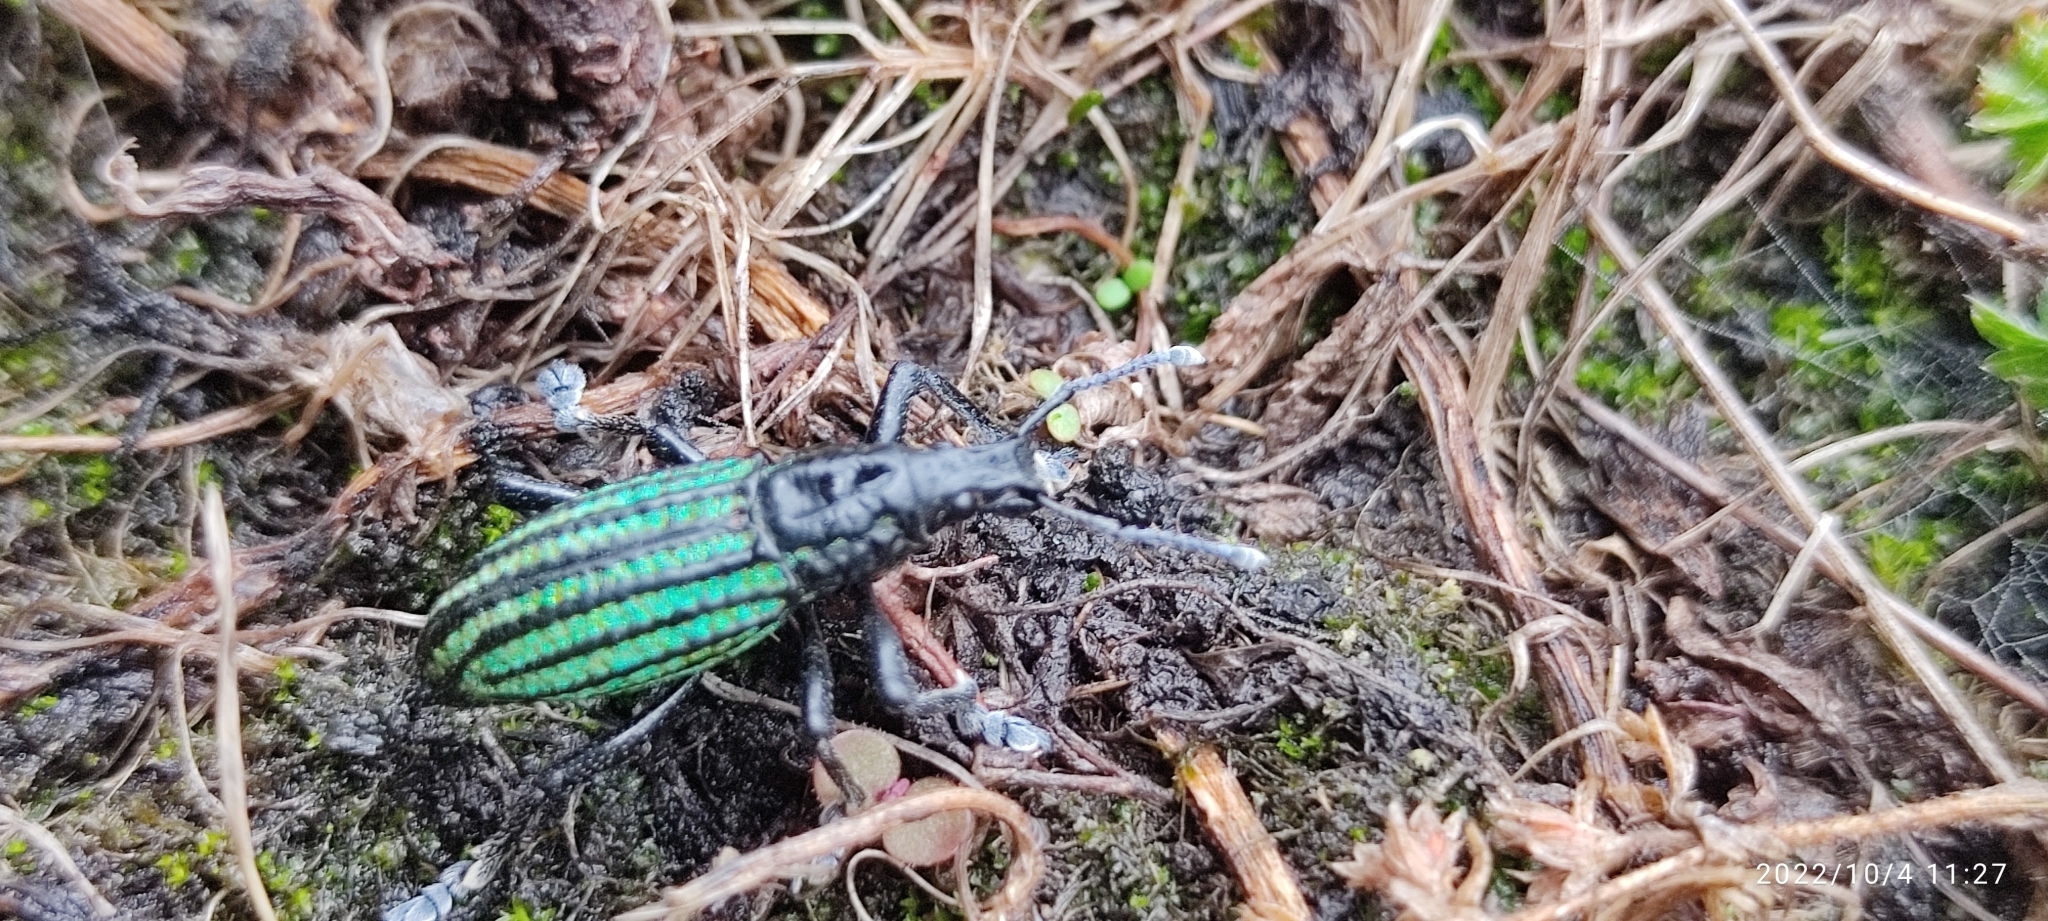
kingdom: Animalia
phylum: Arthropoda
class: Insecta
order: Coleoptera
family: Curculionidae
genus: Exorides
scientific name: Exorides octocostatus
